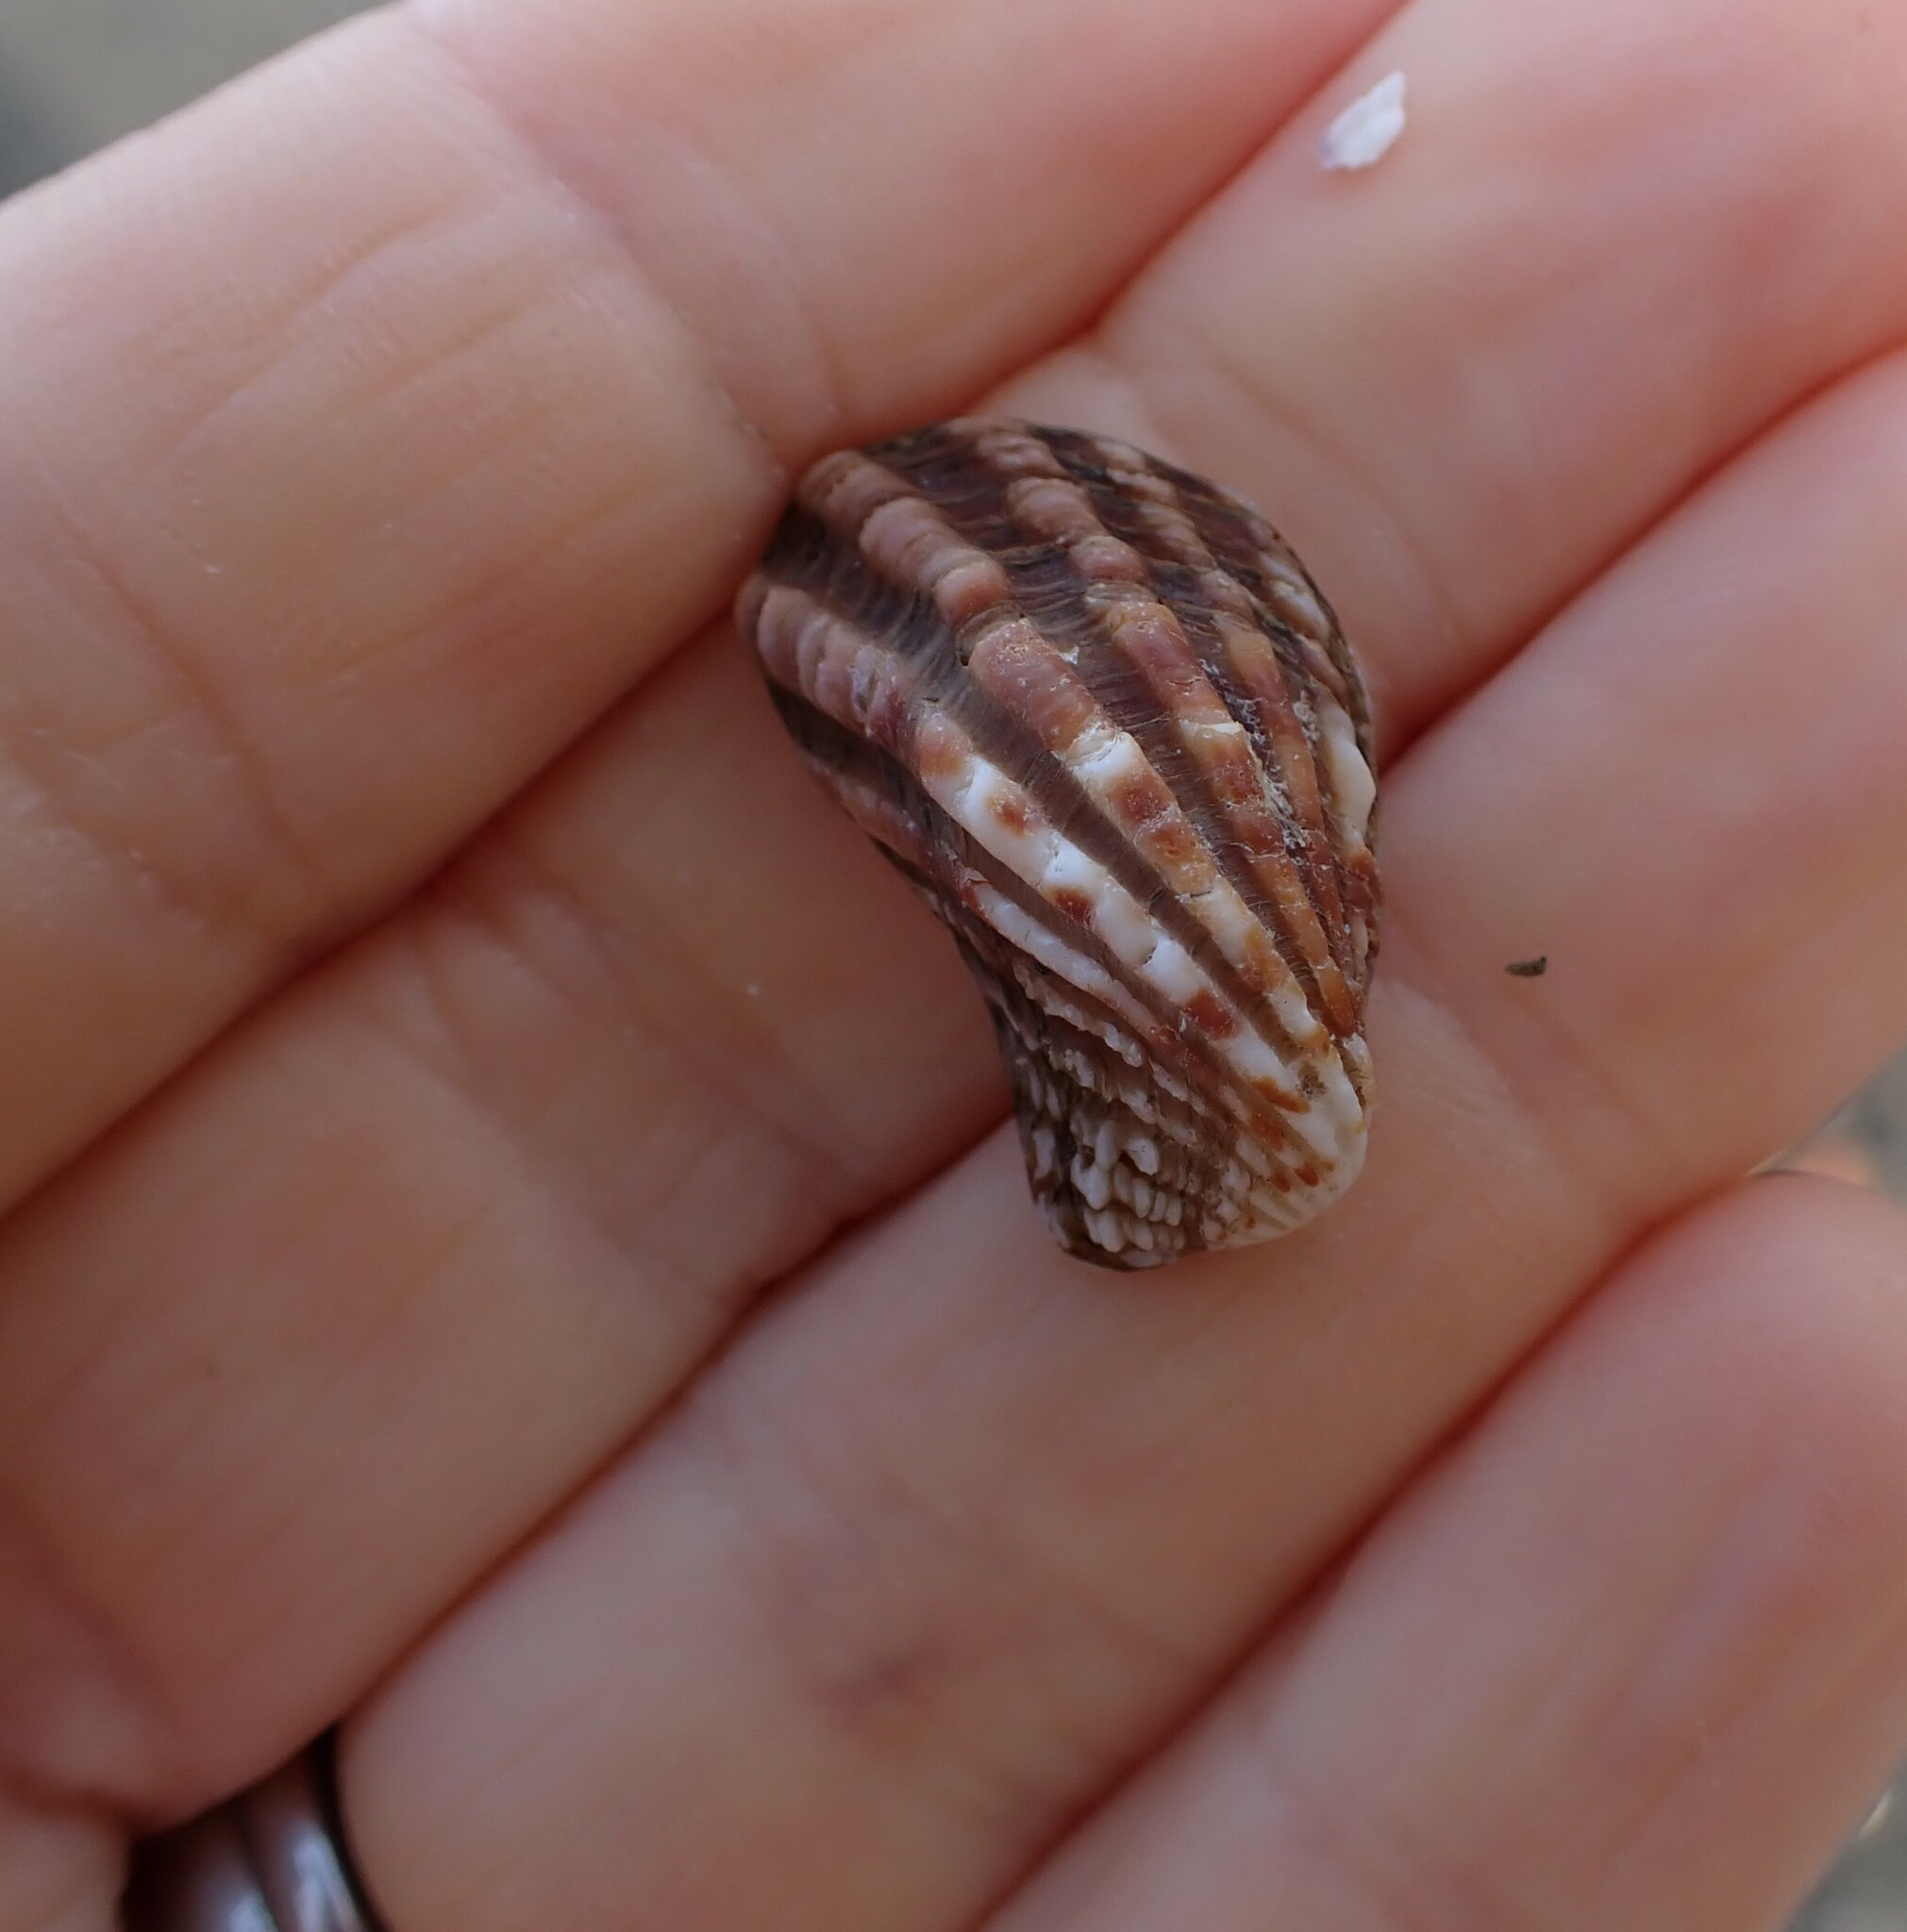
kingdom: Animalia
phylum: Mollusca
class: Bivalvia
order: Carditida
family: Carditidae
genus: Cardita
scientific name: Cardita distorta
